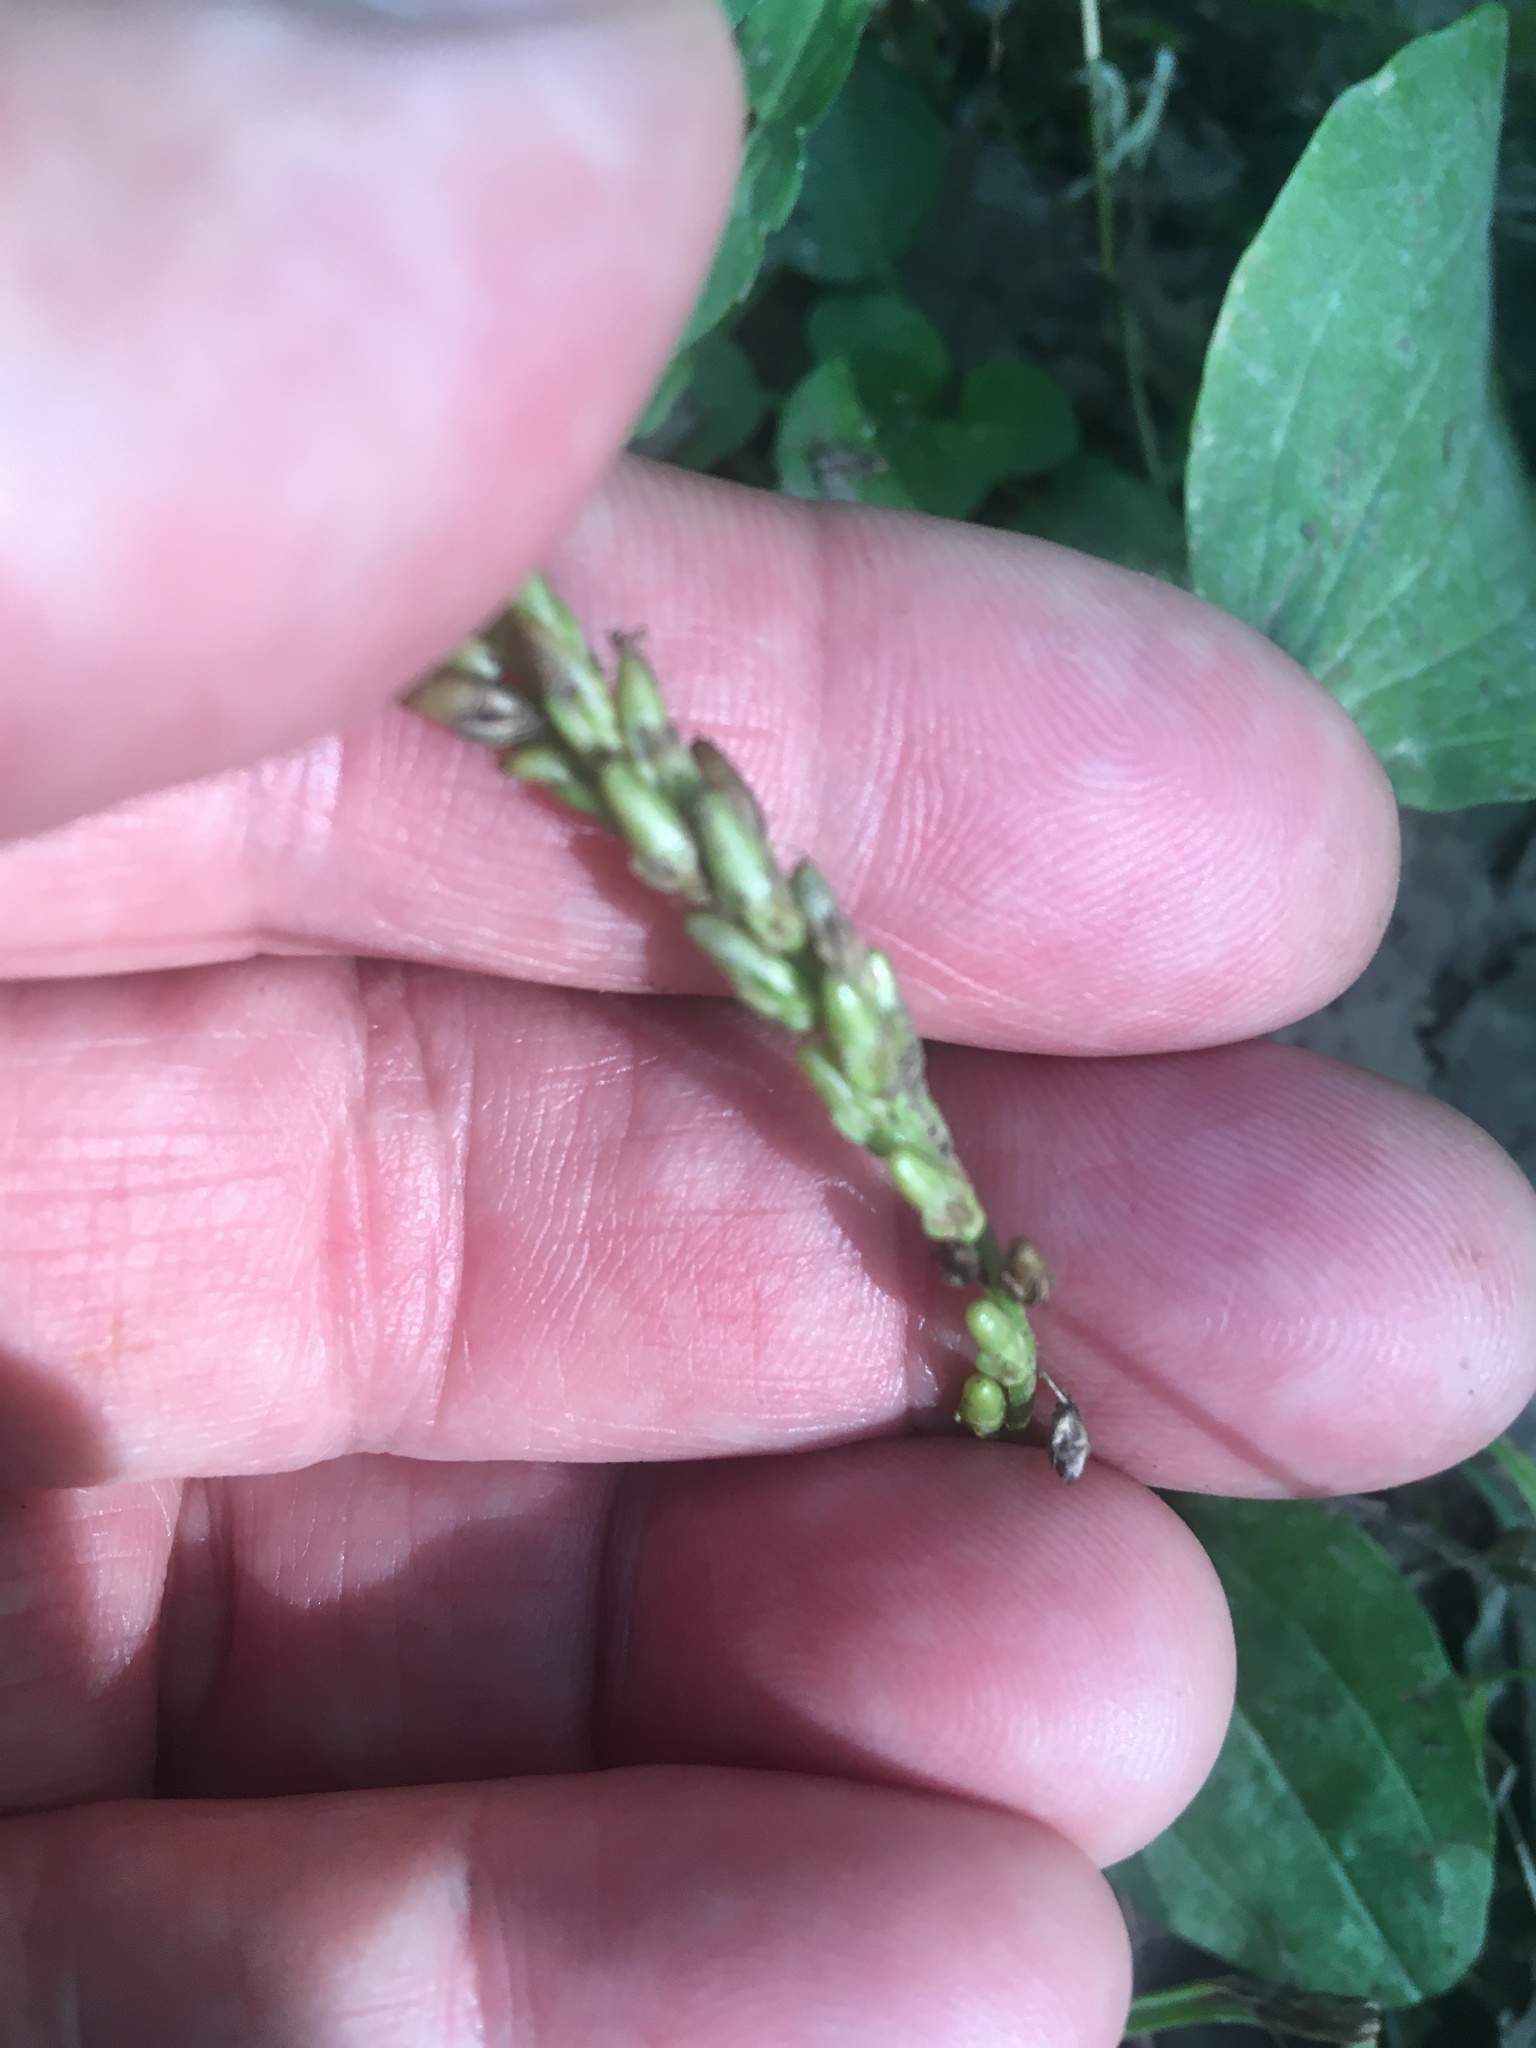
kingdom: Plantae
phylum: Tracheophyta
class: Magnoliopsida
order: Lamiales
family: Plantaginaceae
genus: Plantago
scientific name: Plantago rugelii
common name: American plantain
